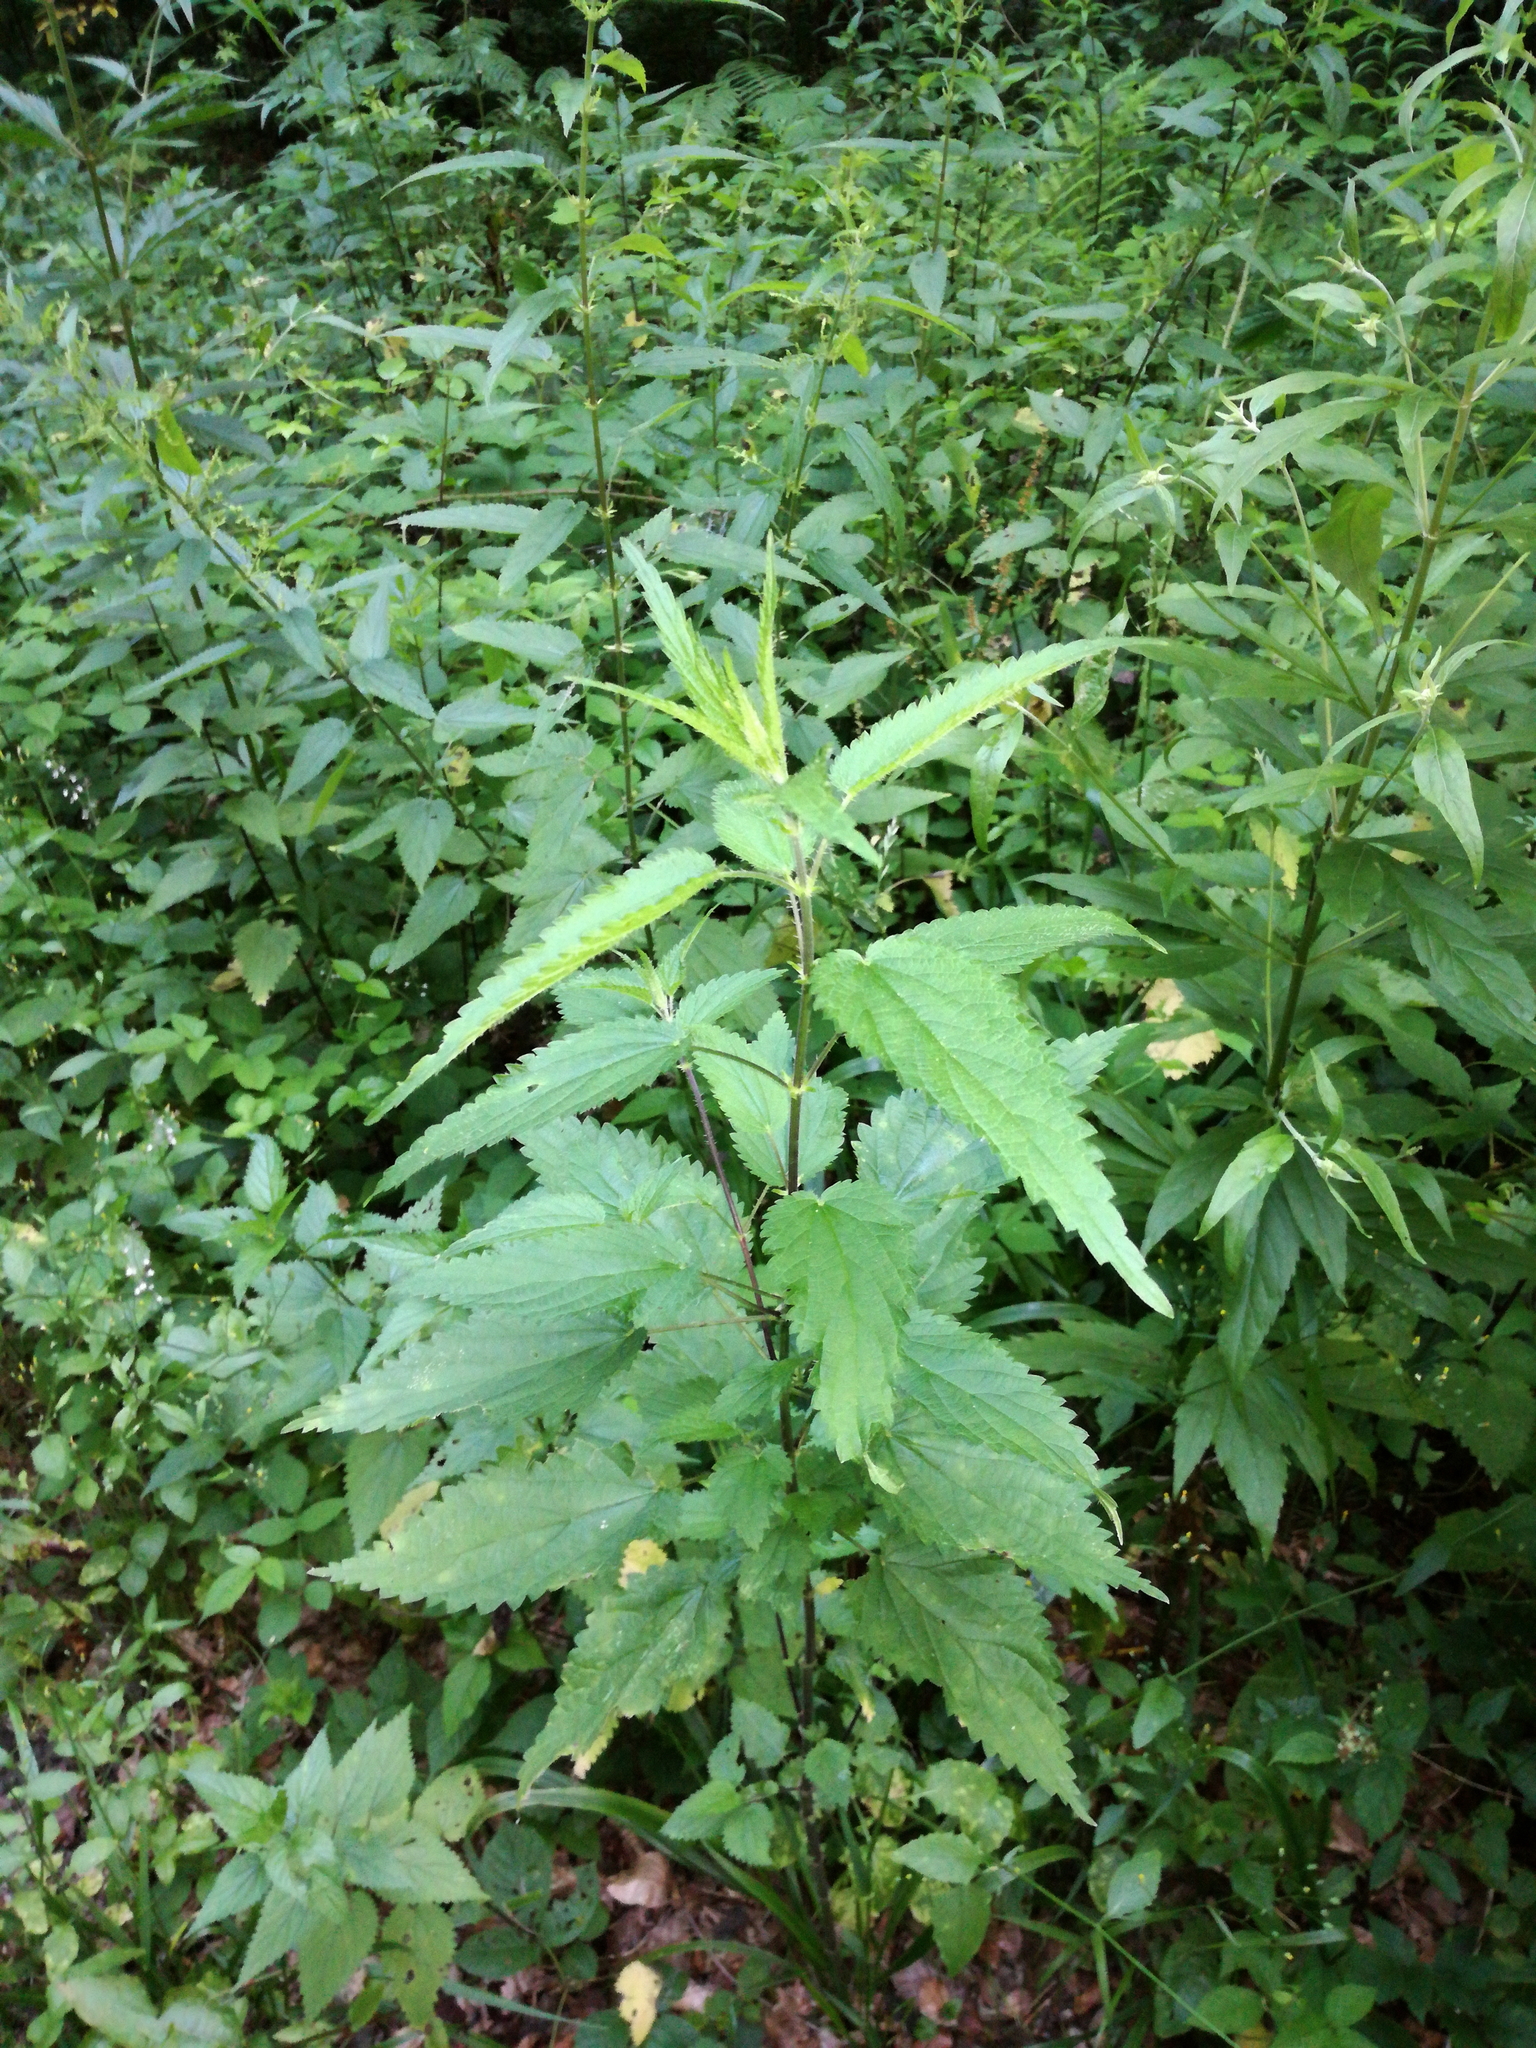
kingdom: Plantae
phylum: Tracheophyta
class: Magnoliopsida
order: Rosales
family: Urticaceae
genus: Urtica
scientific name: Urtica dioica
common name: Common nettle
